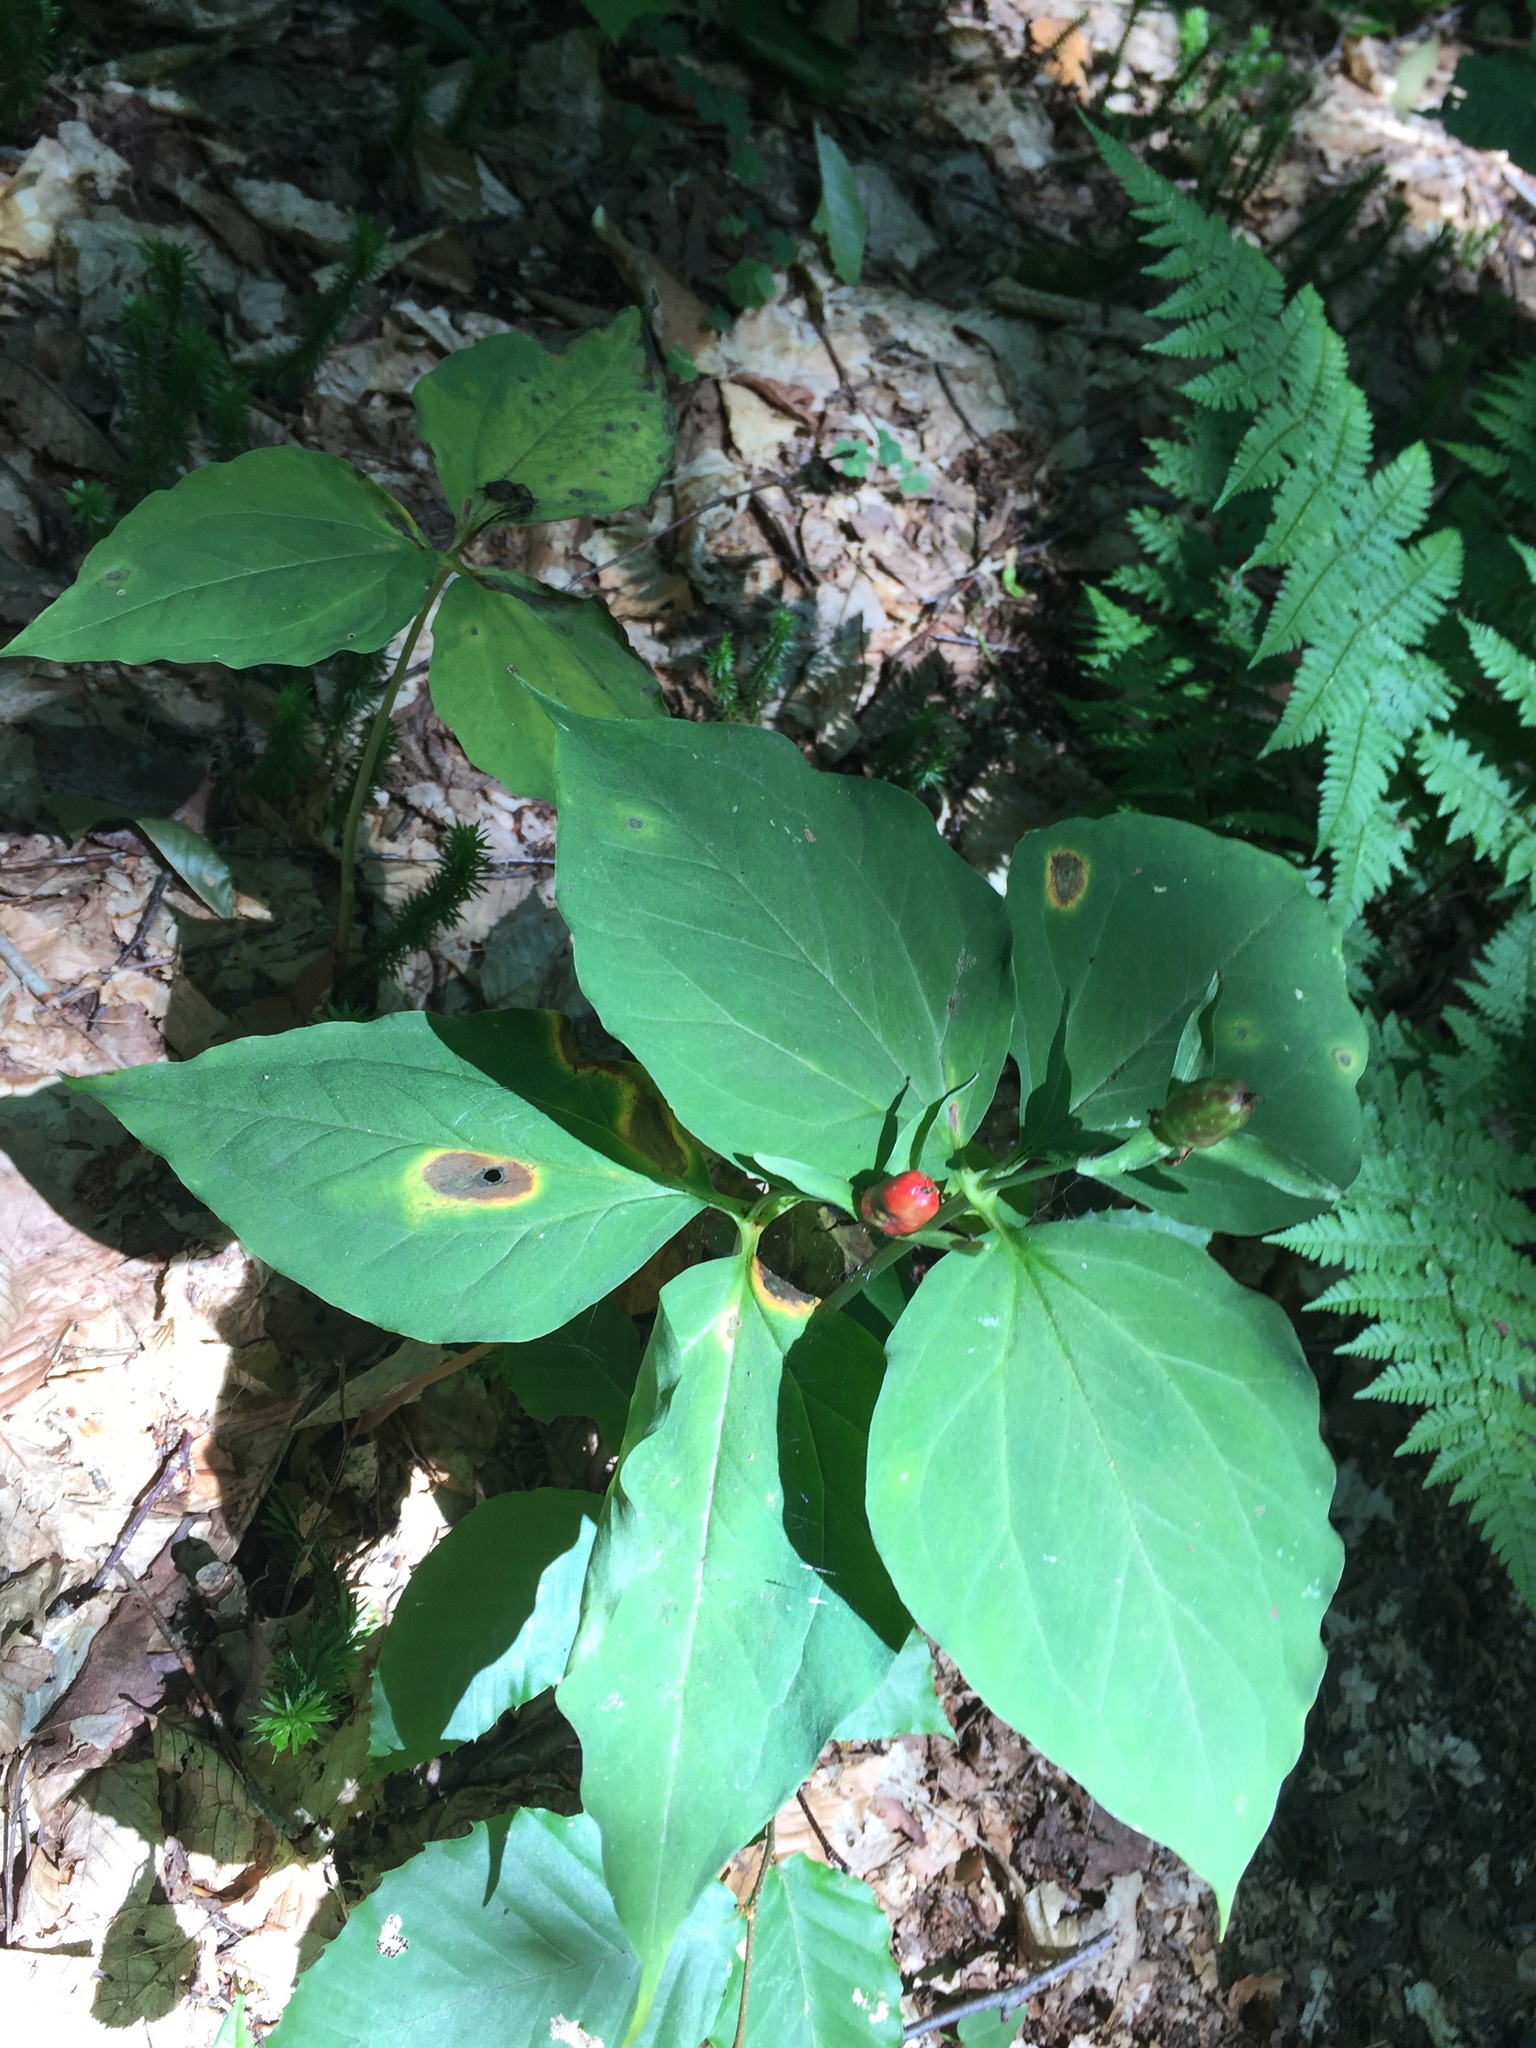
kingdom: Plantae
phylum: Tracheophyta
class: Liliopsida
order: Liliales
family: Melanthiaceae
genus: Trillium
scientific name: Trillium undulatum
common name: Paint trillium
